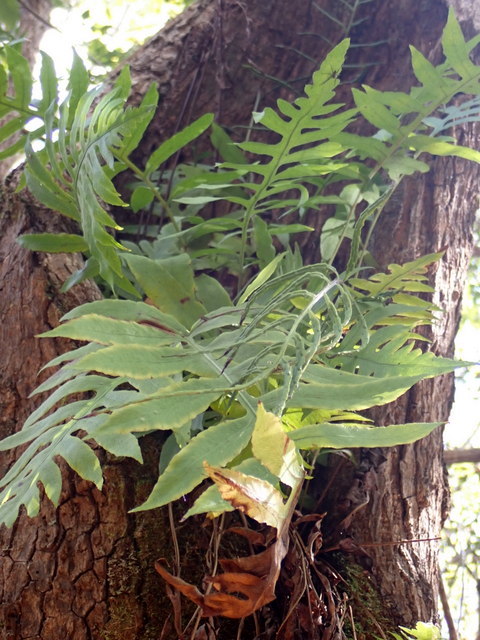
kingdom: Plantae
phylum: Tracheophyta
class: Polypodiopsida
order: Polypodiales
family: Polypodiaceae
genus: Phlebodium
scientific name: Phlebodium aureum
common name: Gold-foot fern
